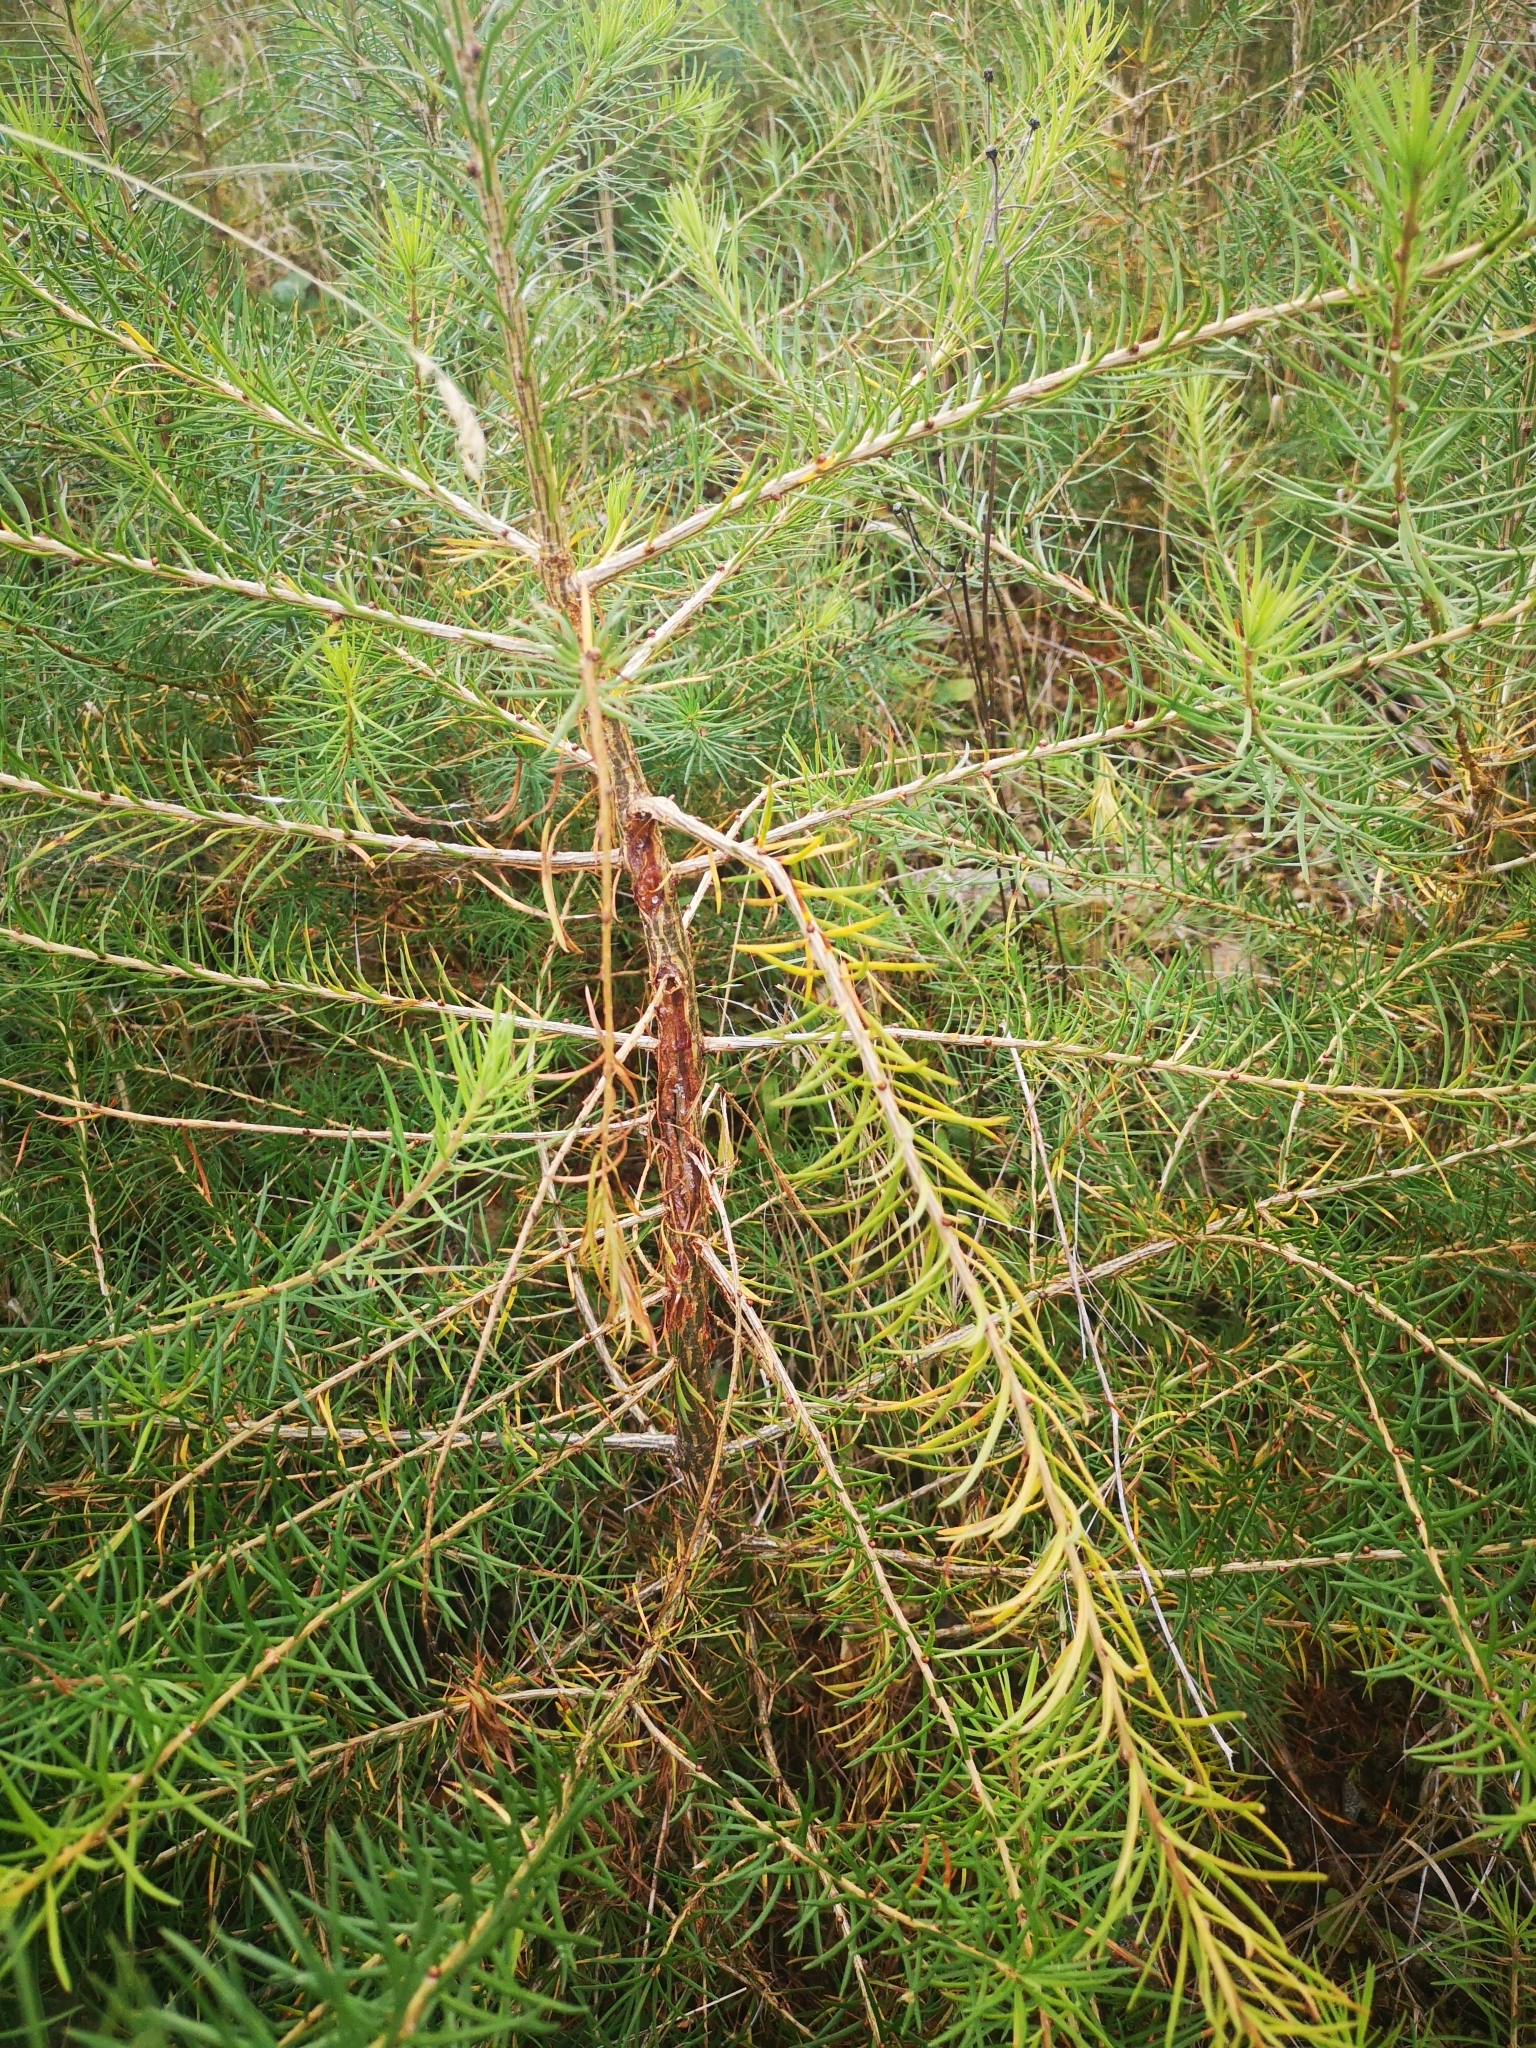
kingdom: Plantae
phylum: Tracheophyta
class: Pinopsida
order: Pinales
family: Pinaceae
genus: Larix
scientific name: Larix decidua
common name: European larch
